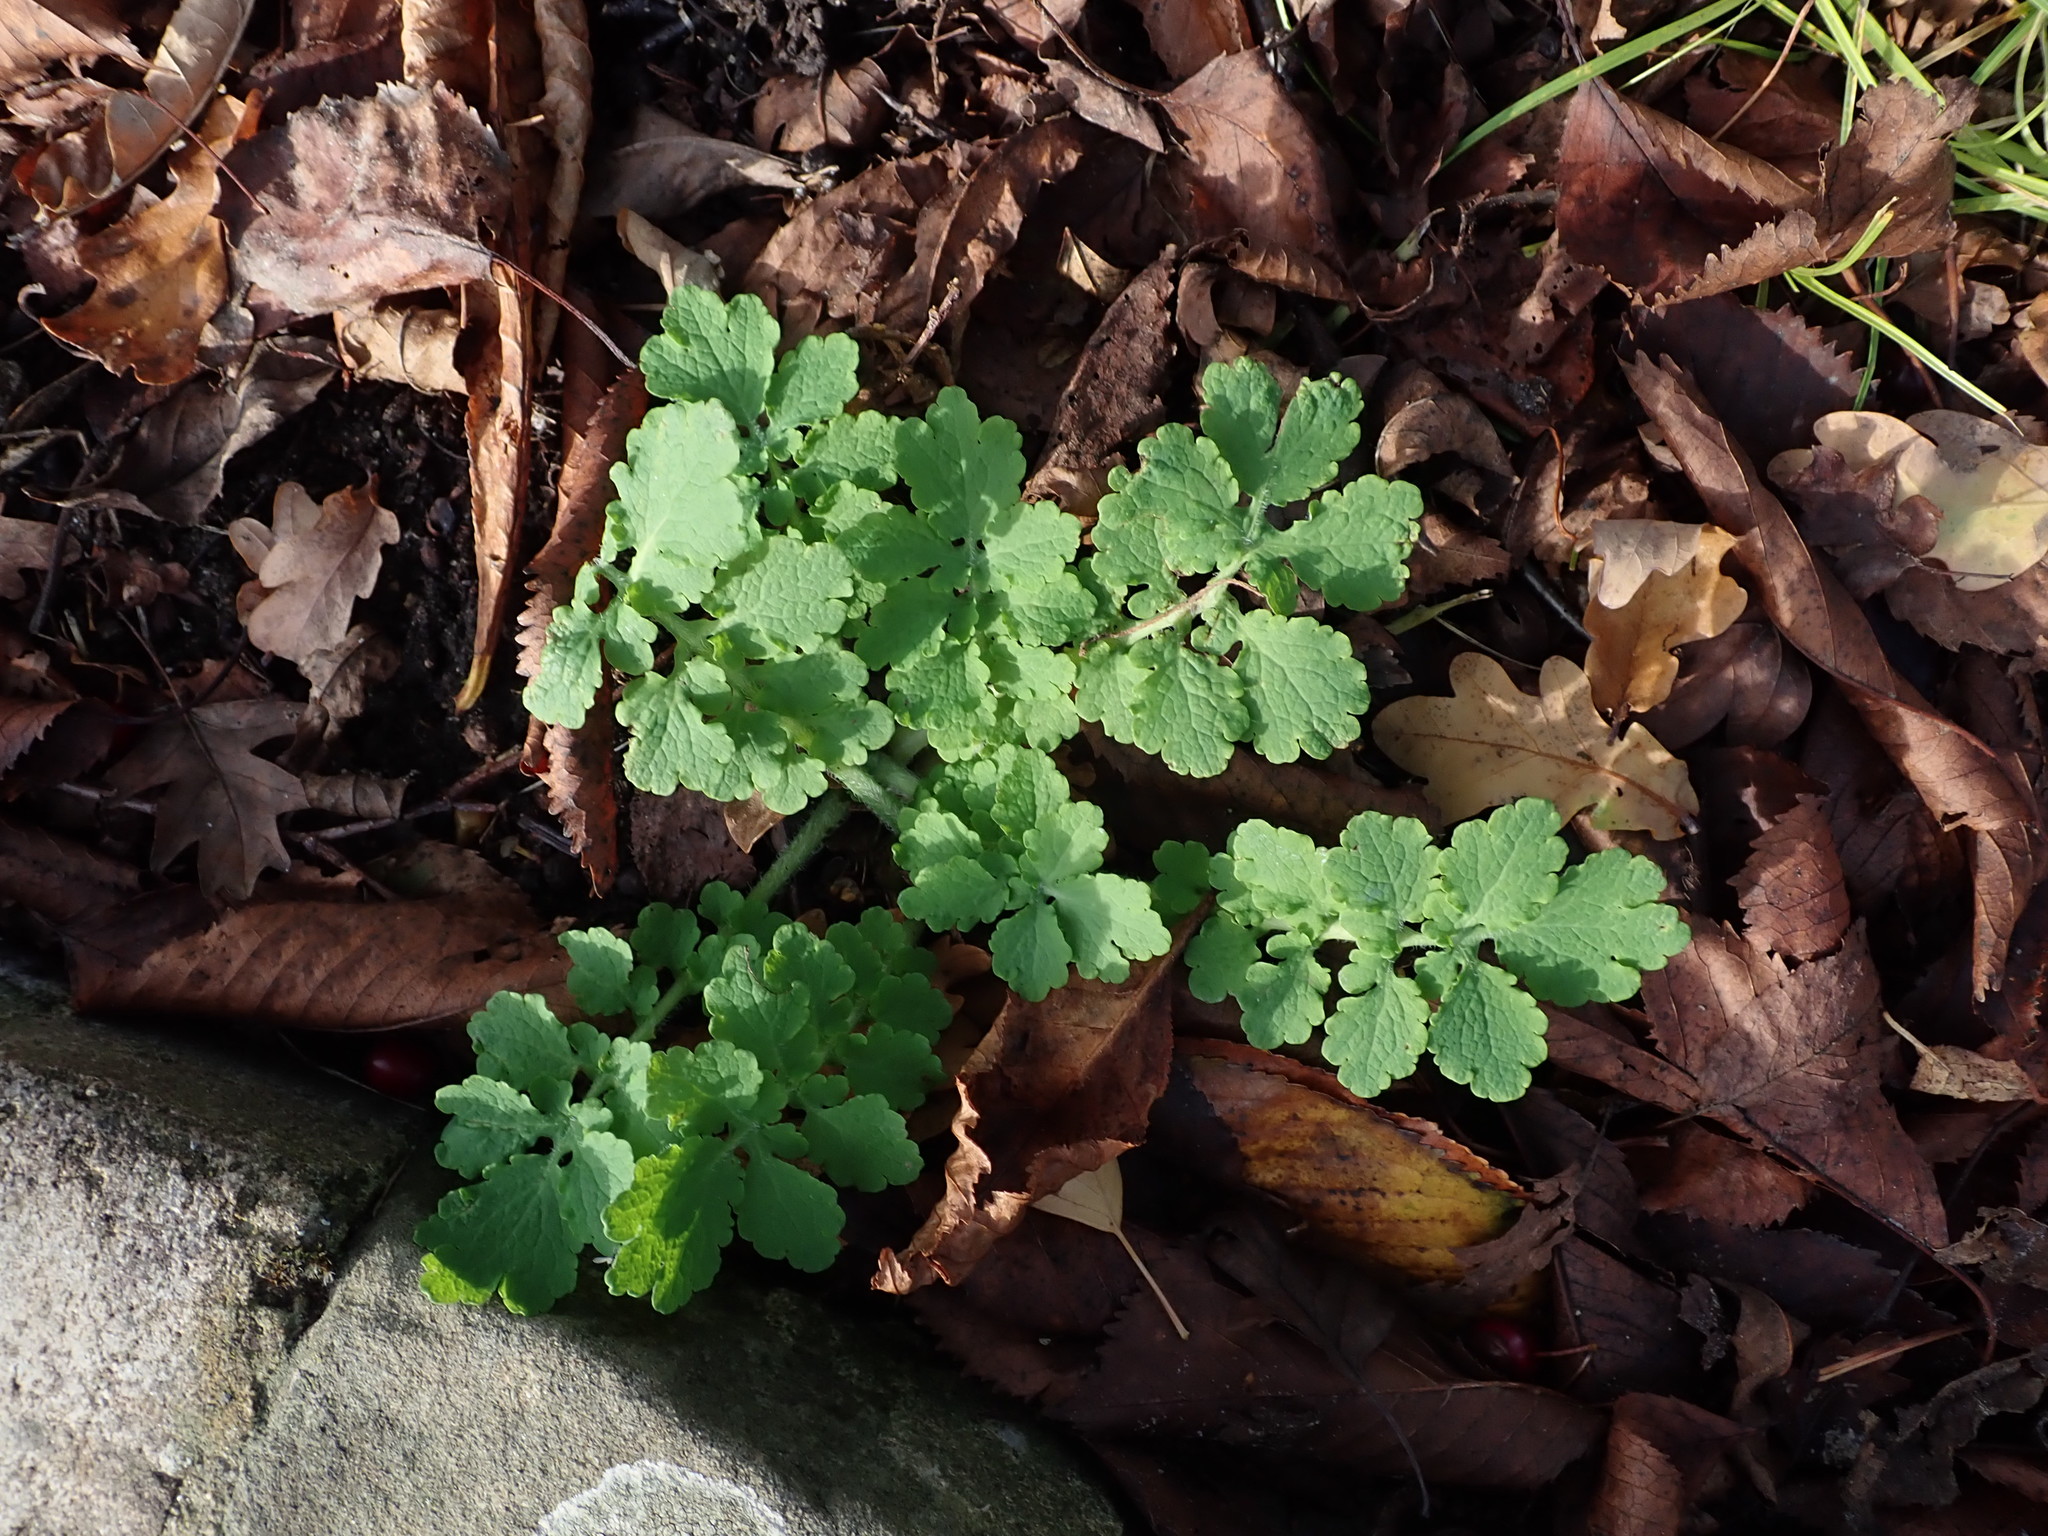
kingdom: Plantae
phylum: Tracheophyta
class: Magnoliopsida
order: Ranunculales
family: Papaveraceae
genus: Chelidonium
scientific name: Chelidonium majus
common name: Greater celandine
